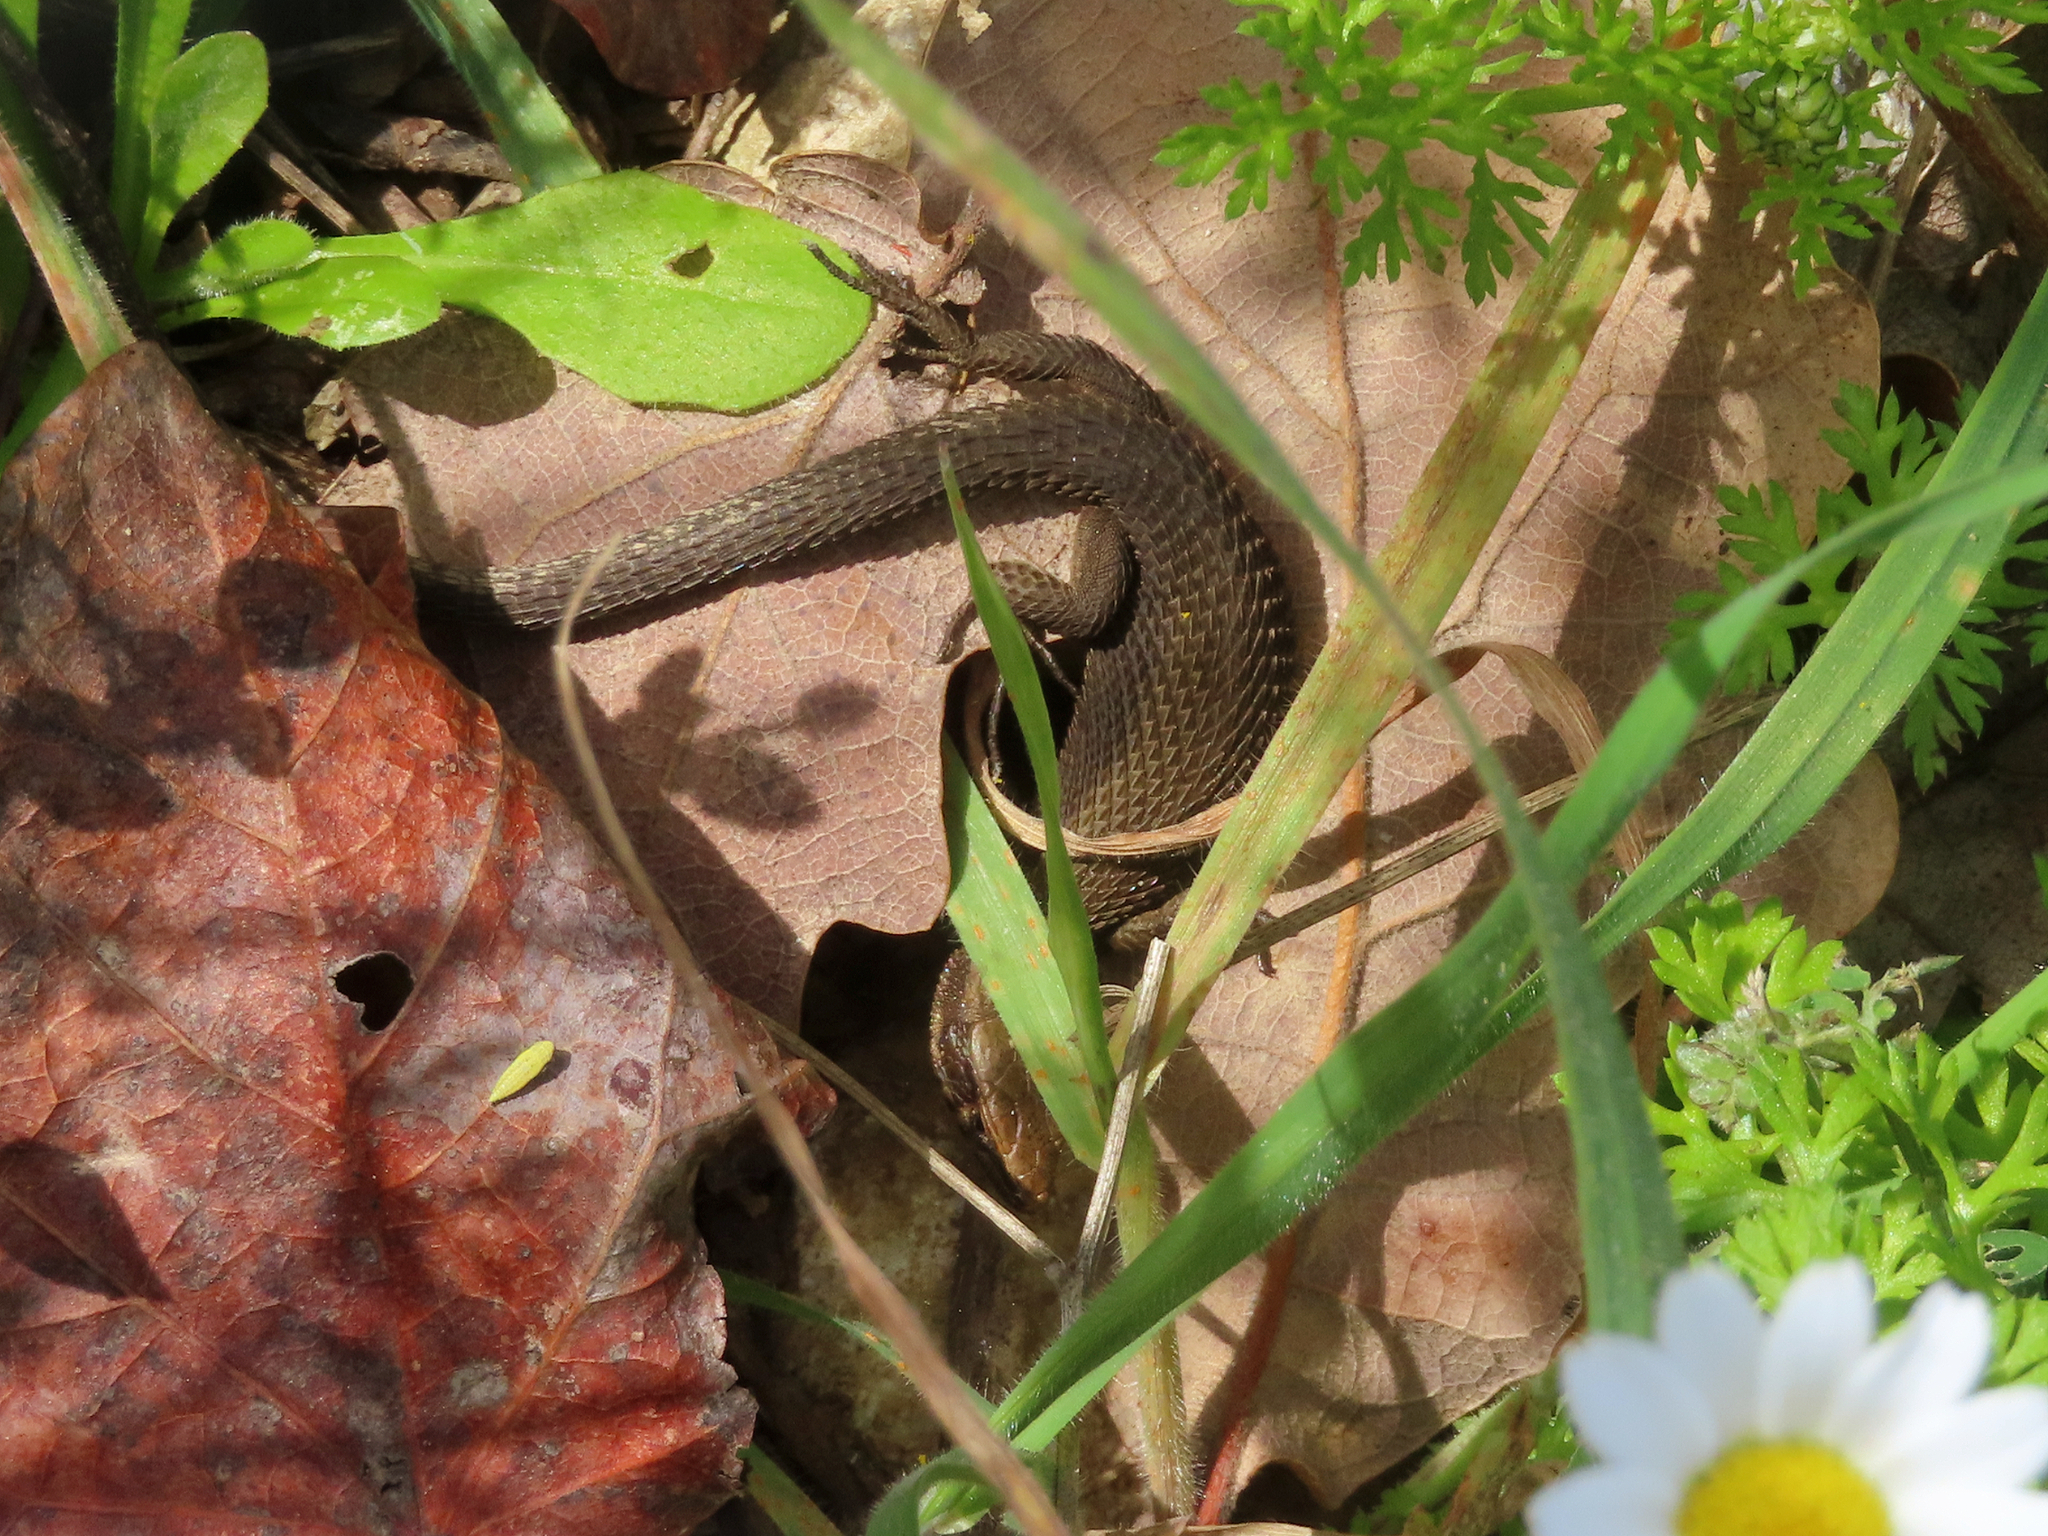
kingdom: Animalia
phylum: Chordata
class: Squamata
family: Lacertidae
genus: Algyroides
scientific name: Algyroides moreoticus
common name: Greek algyroides
